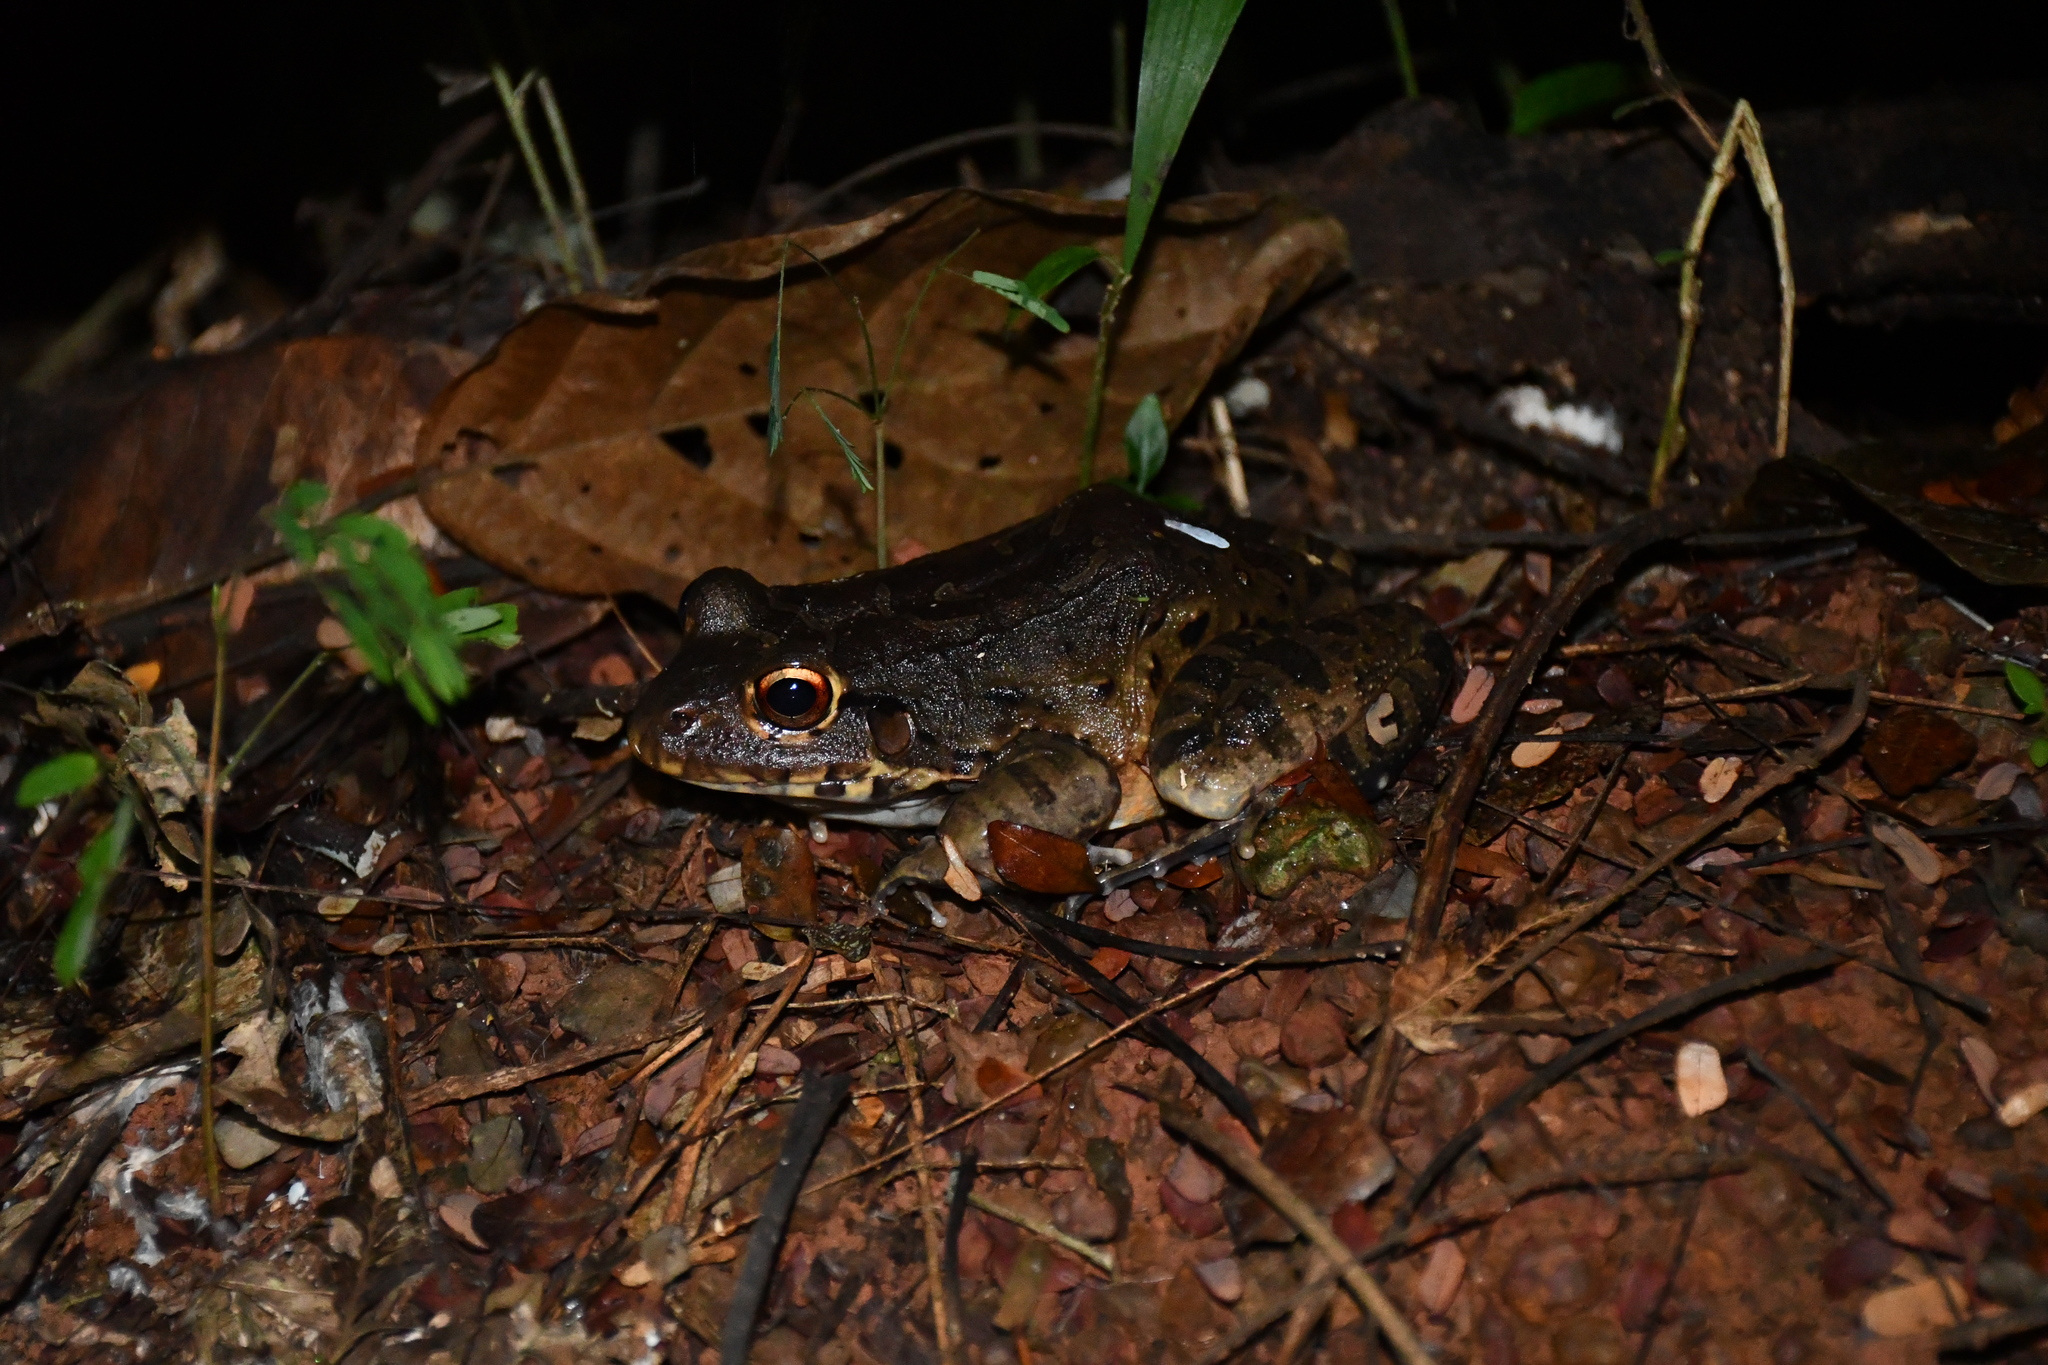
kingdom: Animalia
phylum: Chordata
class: Amphibia
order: Anura
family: Leptodactylidae
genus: Leptodactylus
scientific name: Leptodactylus knudseni
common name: Knudsen's frog
